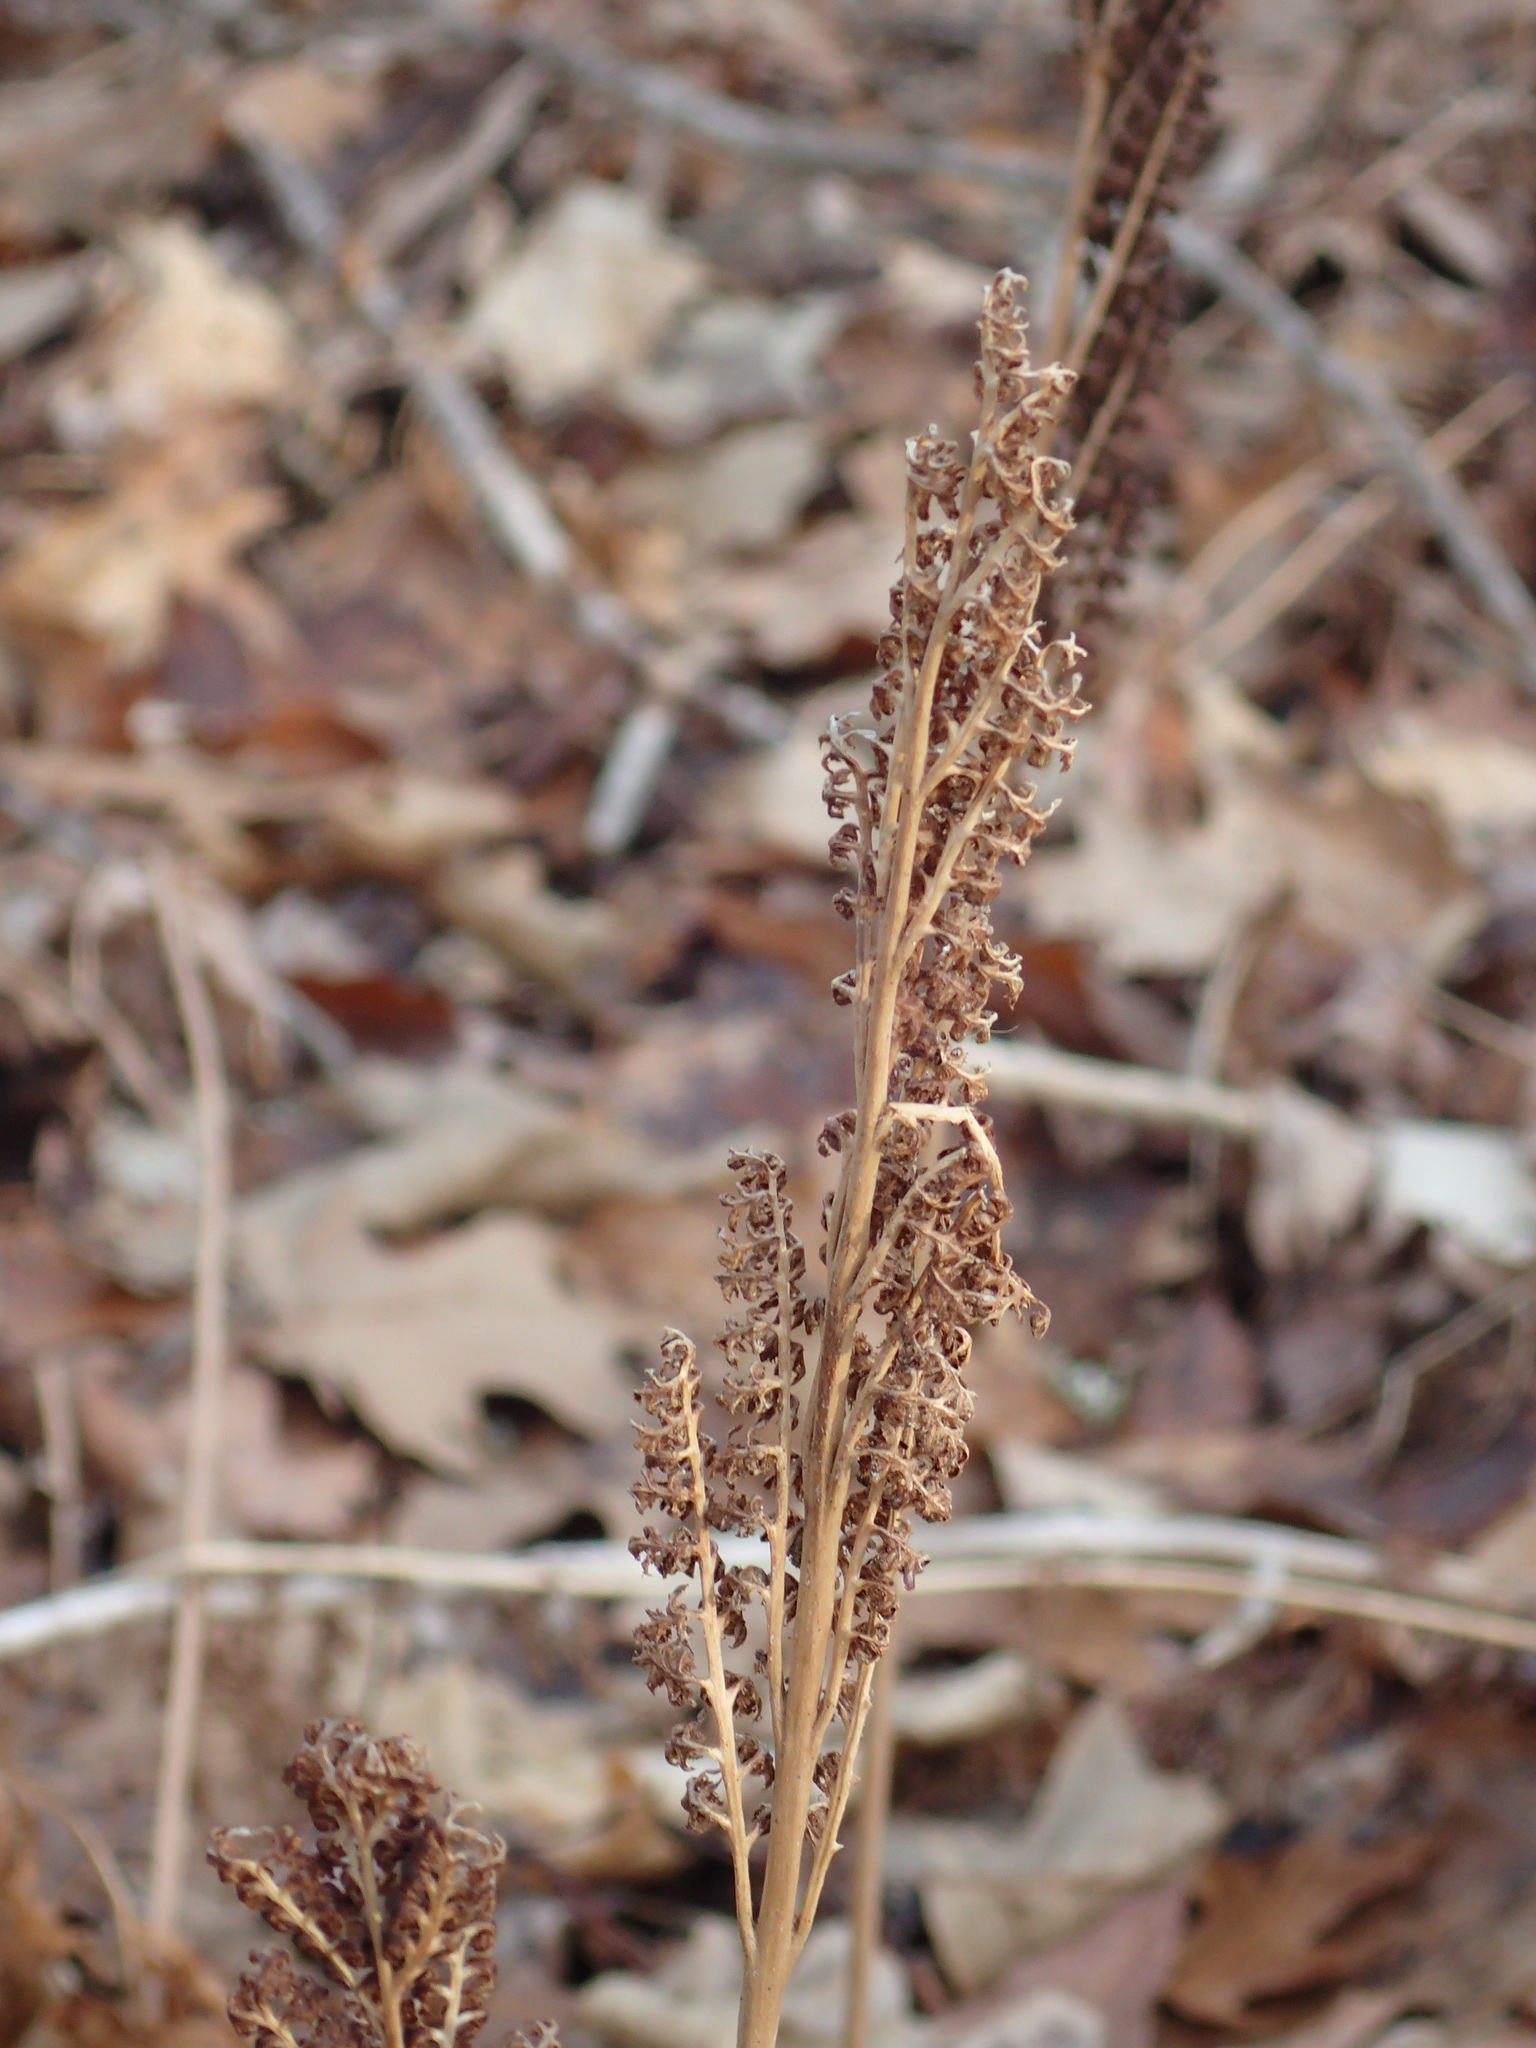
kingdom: Plantae
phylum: Tracheophyta
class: Polypodiopsida
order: Polypodiales
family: Onocleaceae
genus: Onoclea
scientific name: Onoclea sensibilis
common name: Sensitive fern
